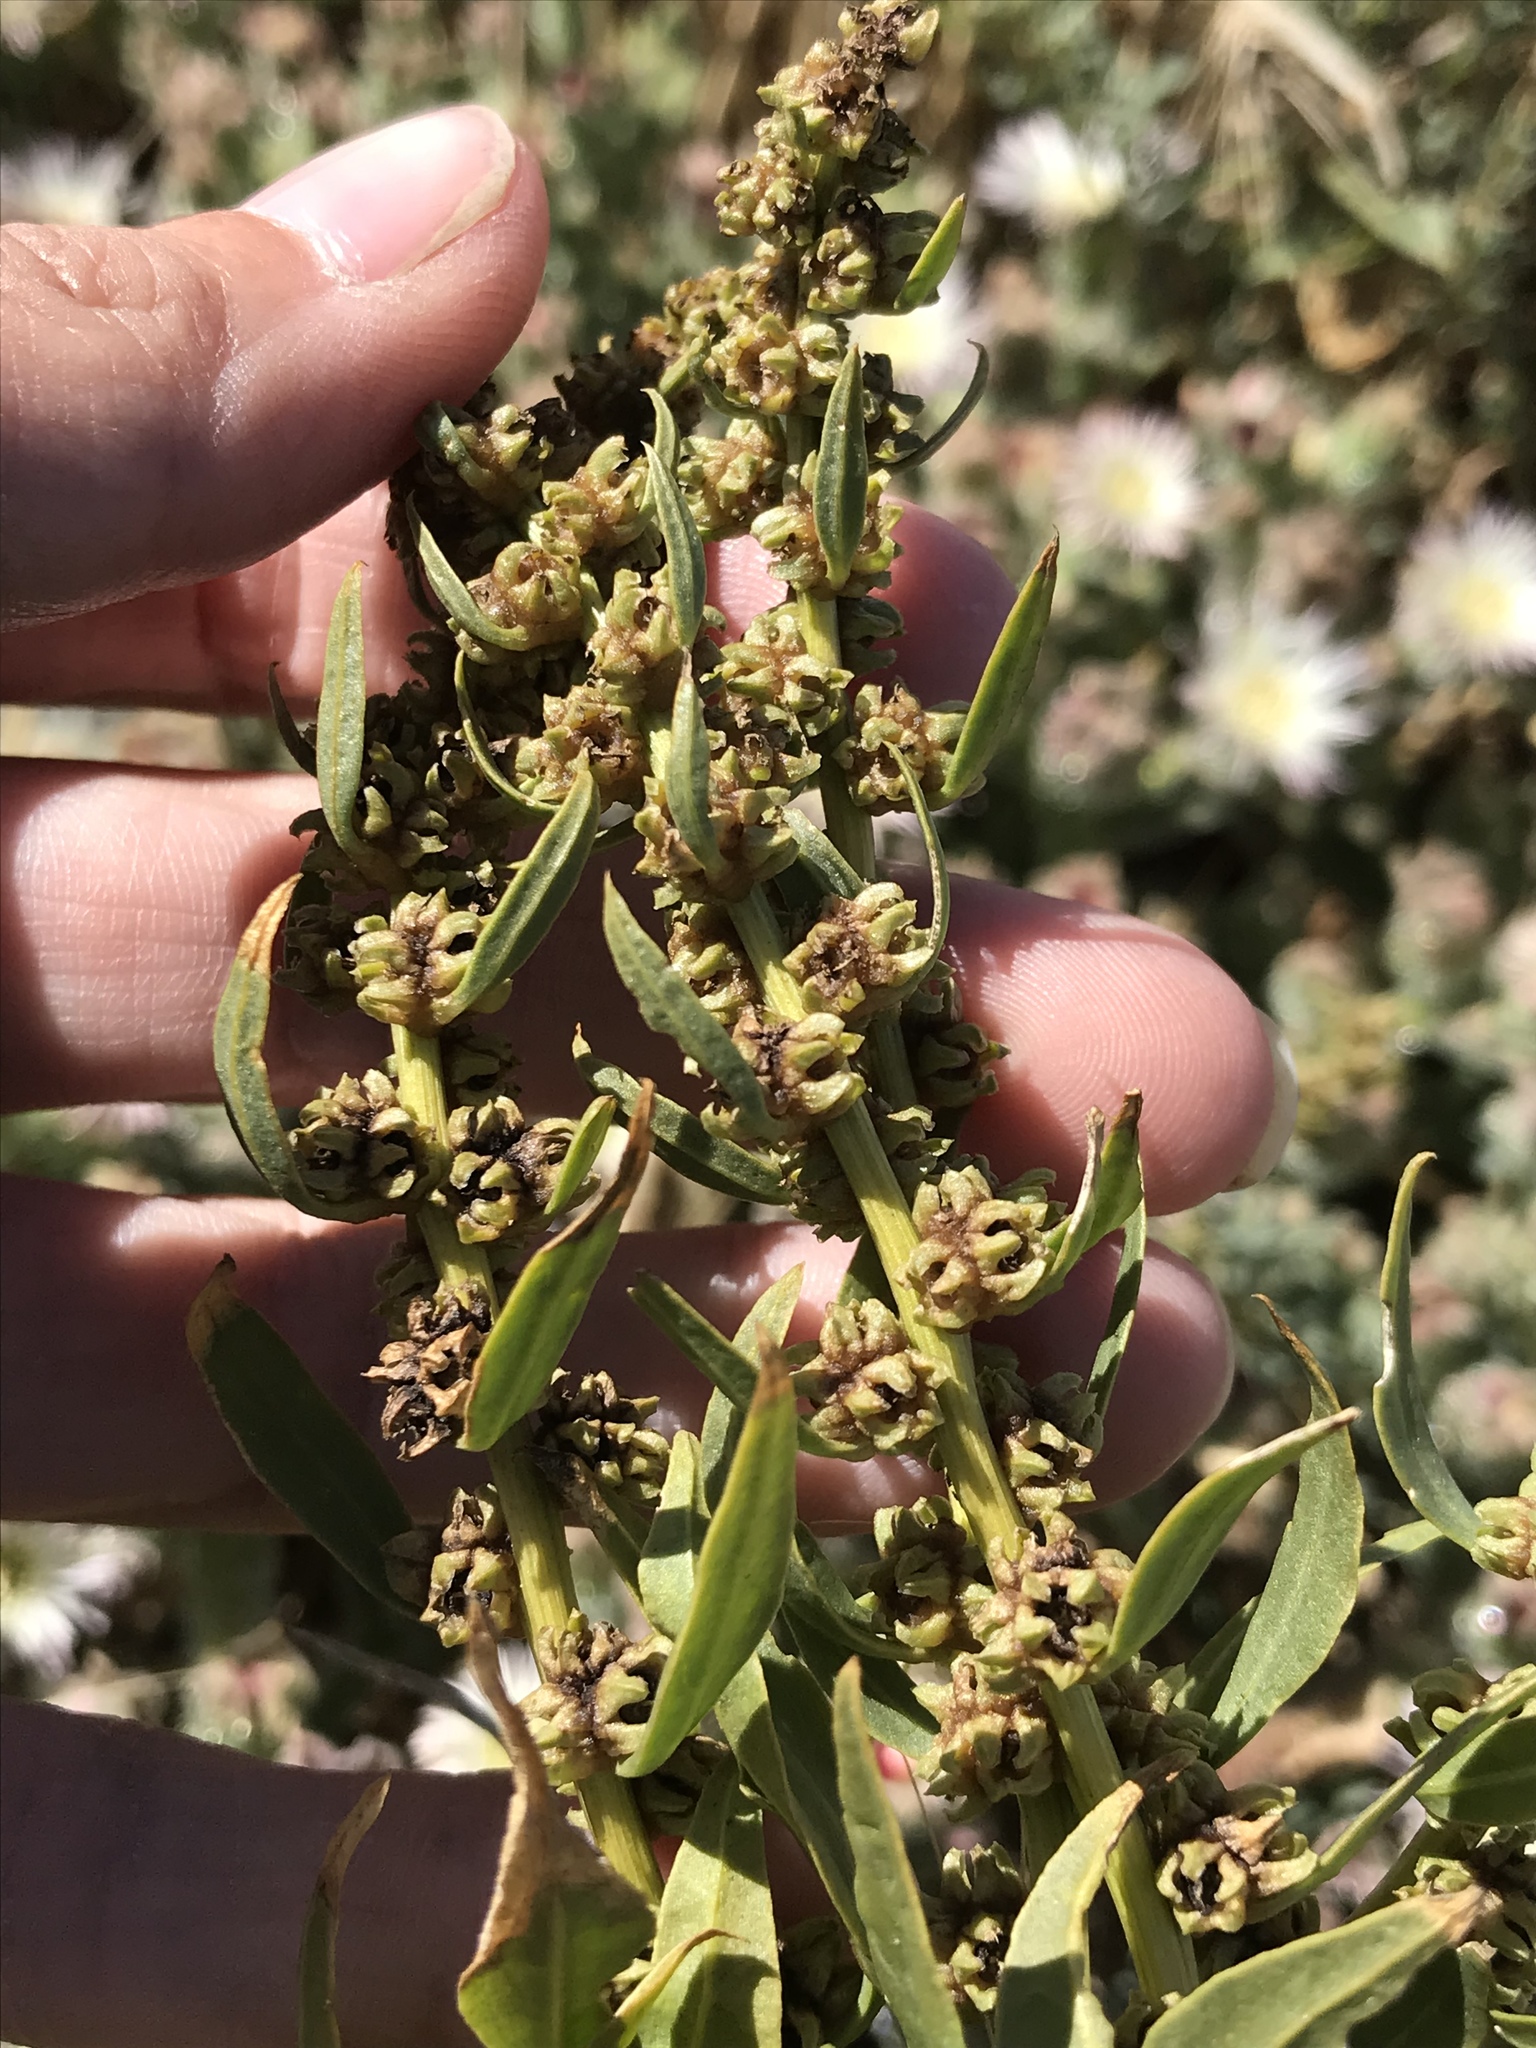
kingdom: Plantae
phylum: Tracheophyta
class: Magnoliopsida
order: Caryophyllales
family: Amaranthaceae
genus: Beta
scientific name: Beta vulgaris
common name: Beet
